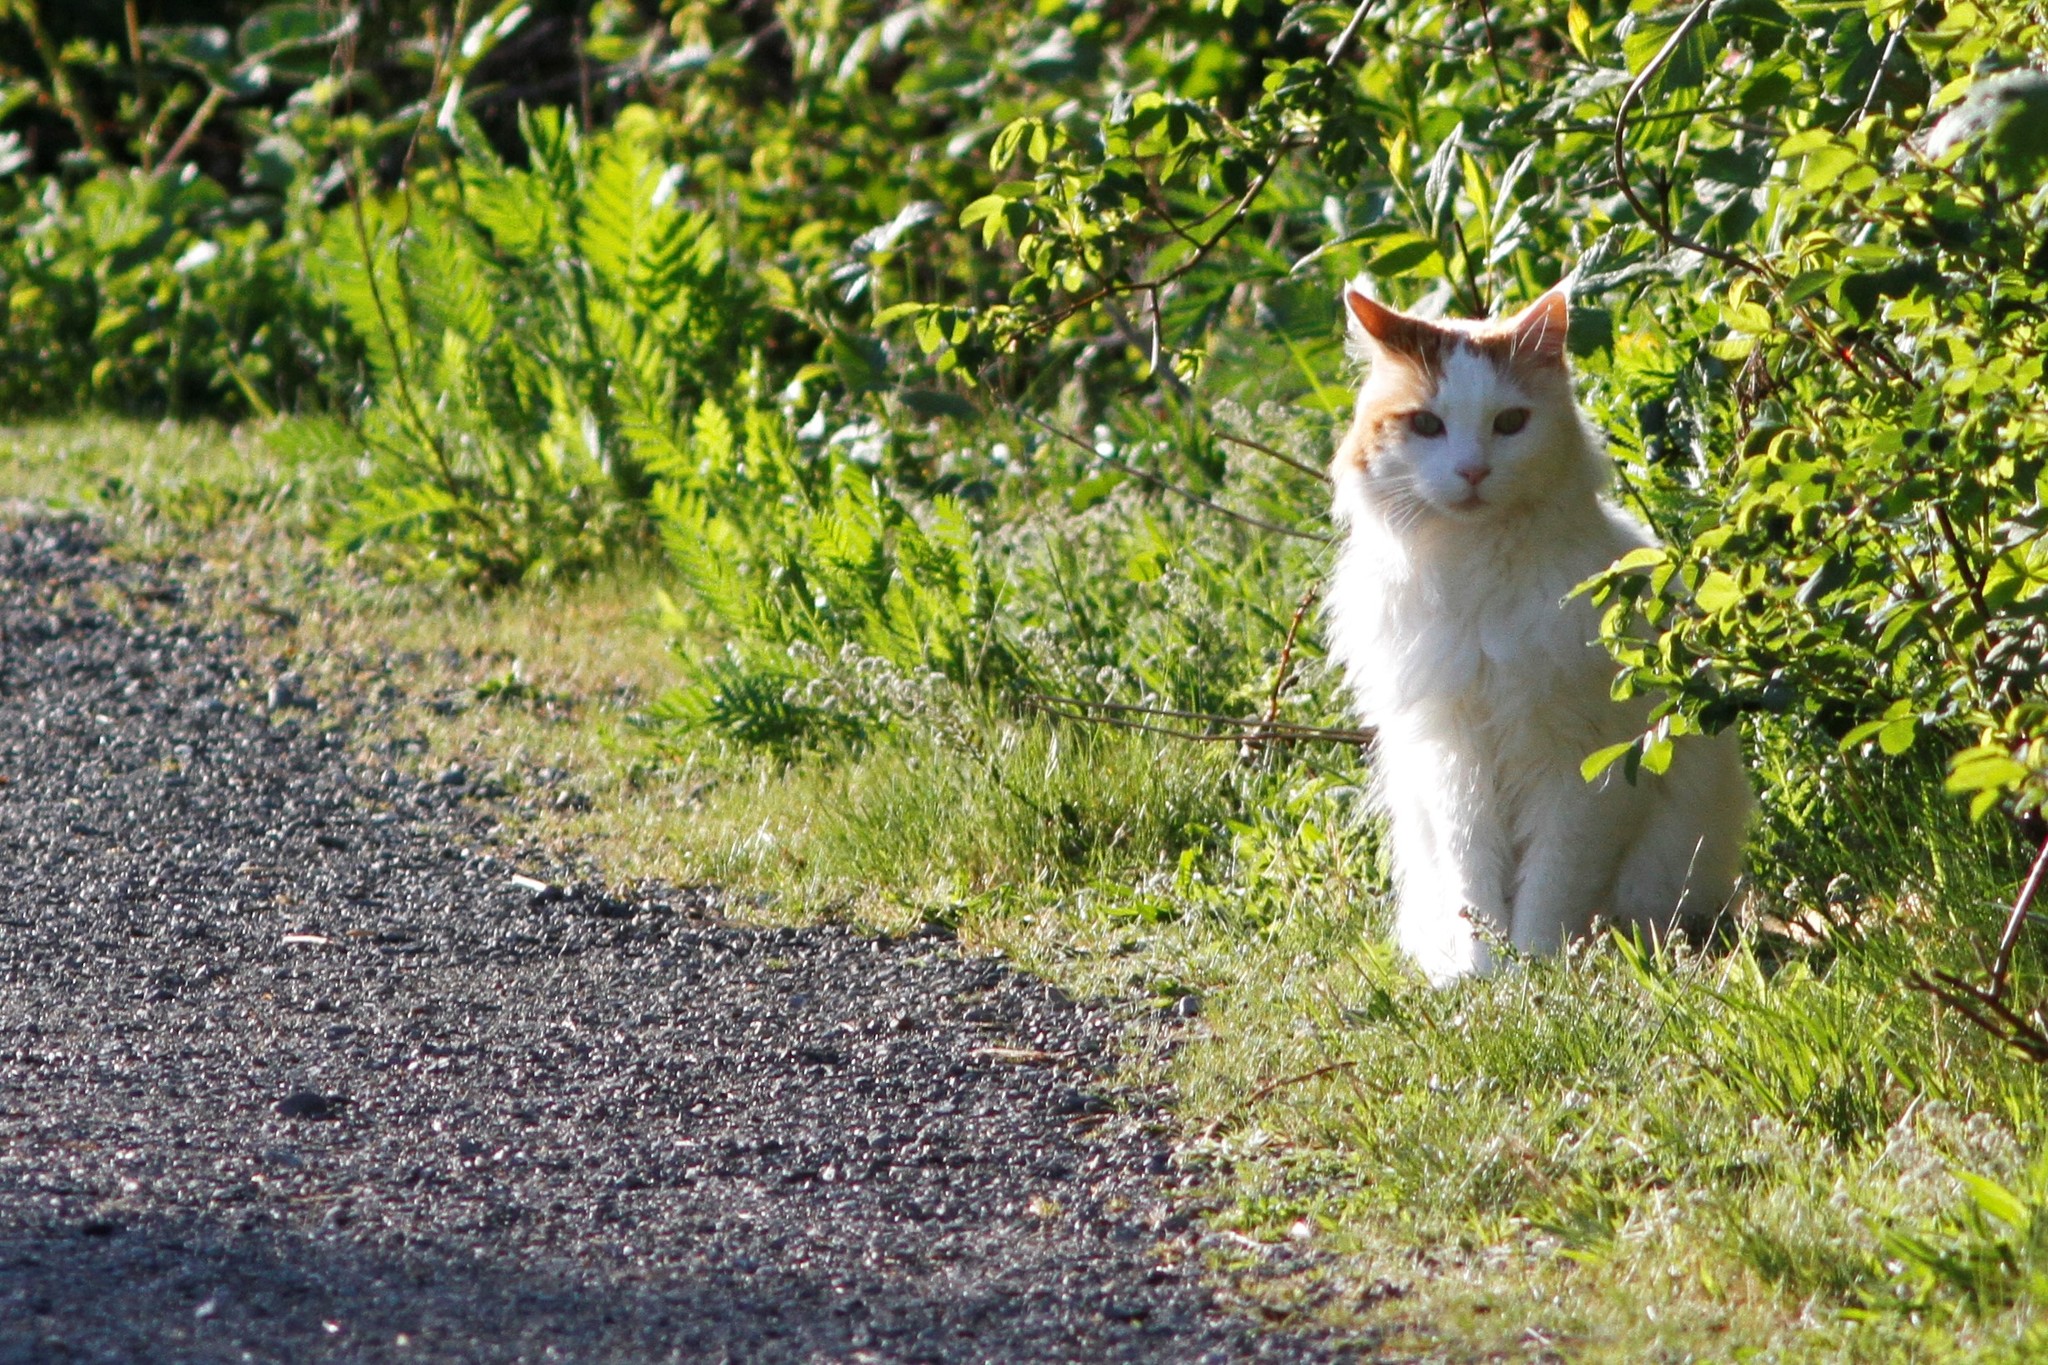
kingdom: Animalia
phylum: Chordata
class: Mammalia
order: Carnivora
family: Felidae
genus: Felis
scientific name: Felis catus
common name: Domestic cat
